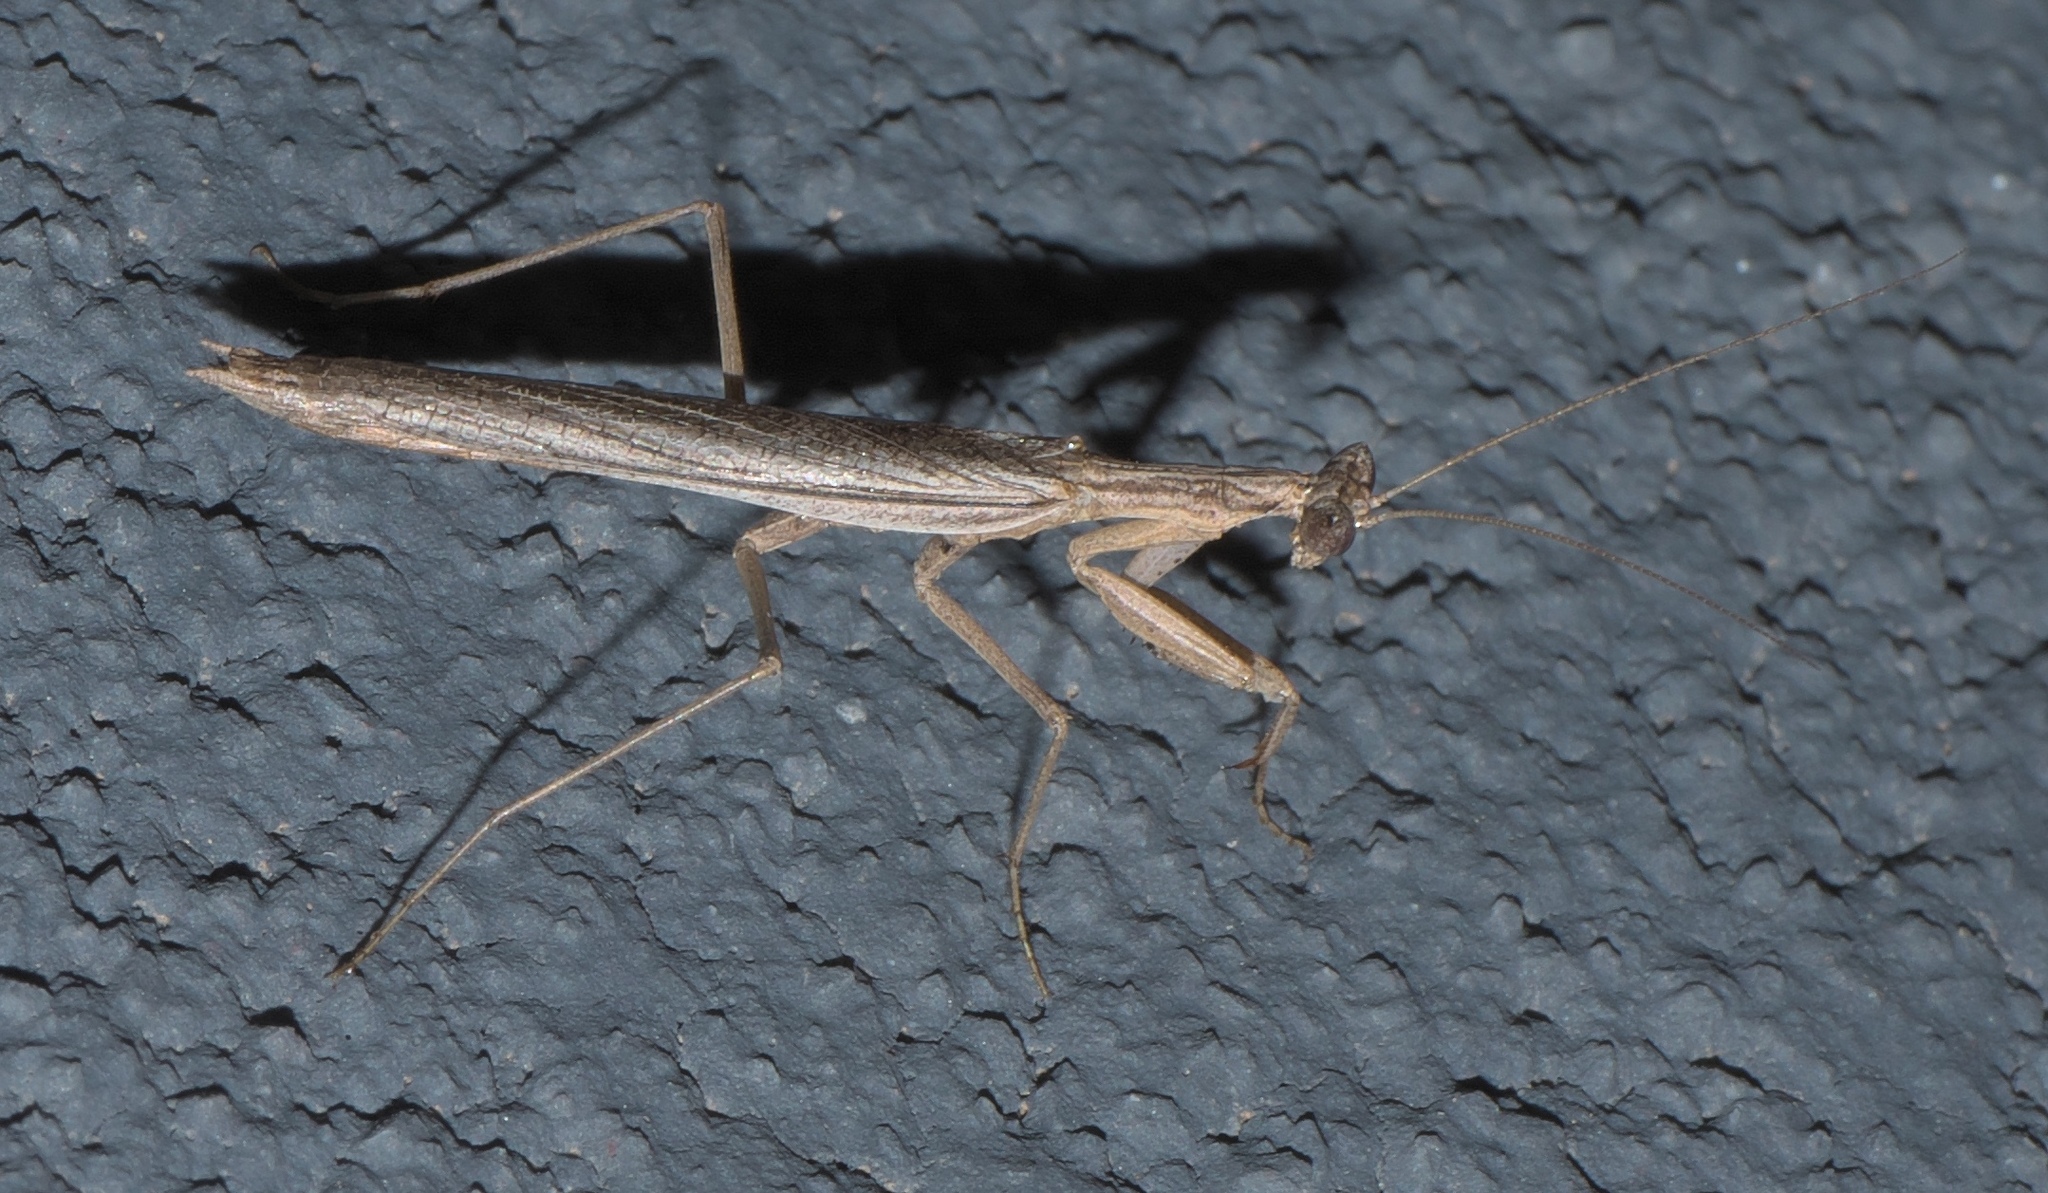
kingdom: Animalia
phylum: Arthropoda
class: Insecta
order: Mantodea
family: Amelidae
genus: Litaneutria
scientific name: Litaneutria minor
